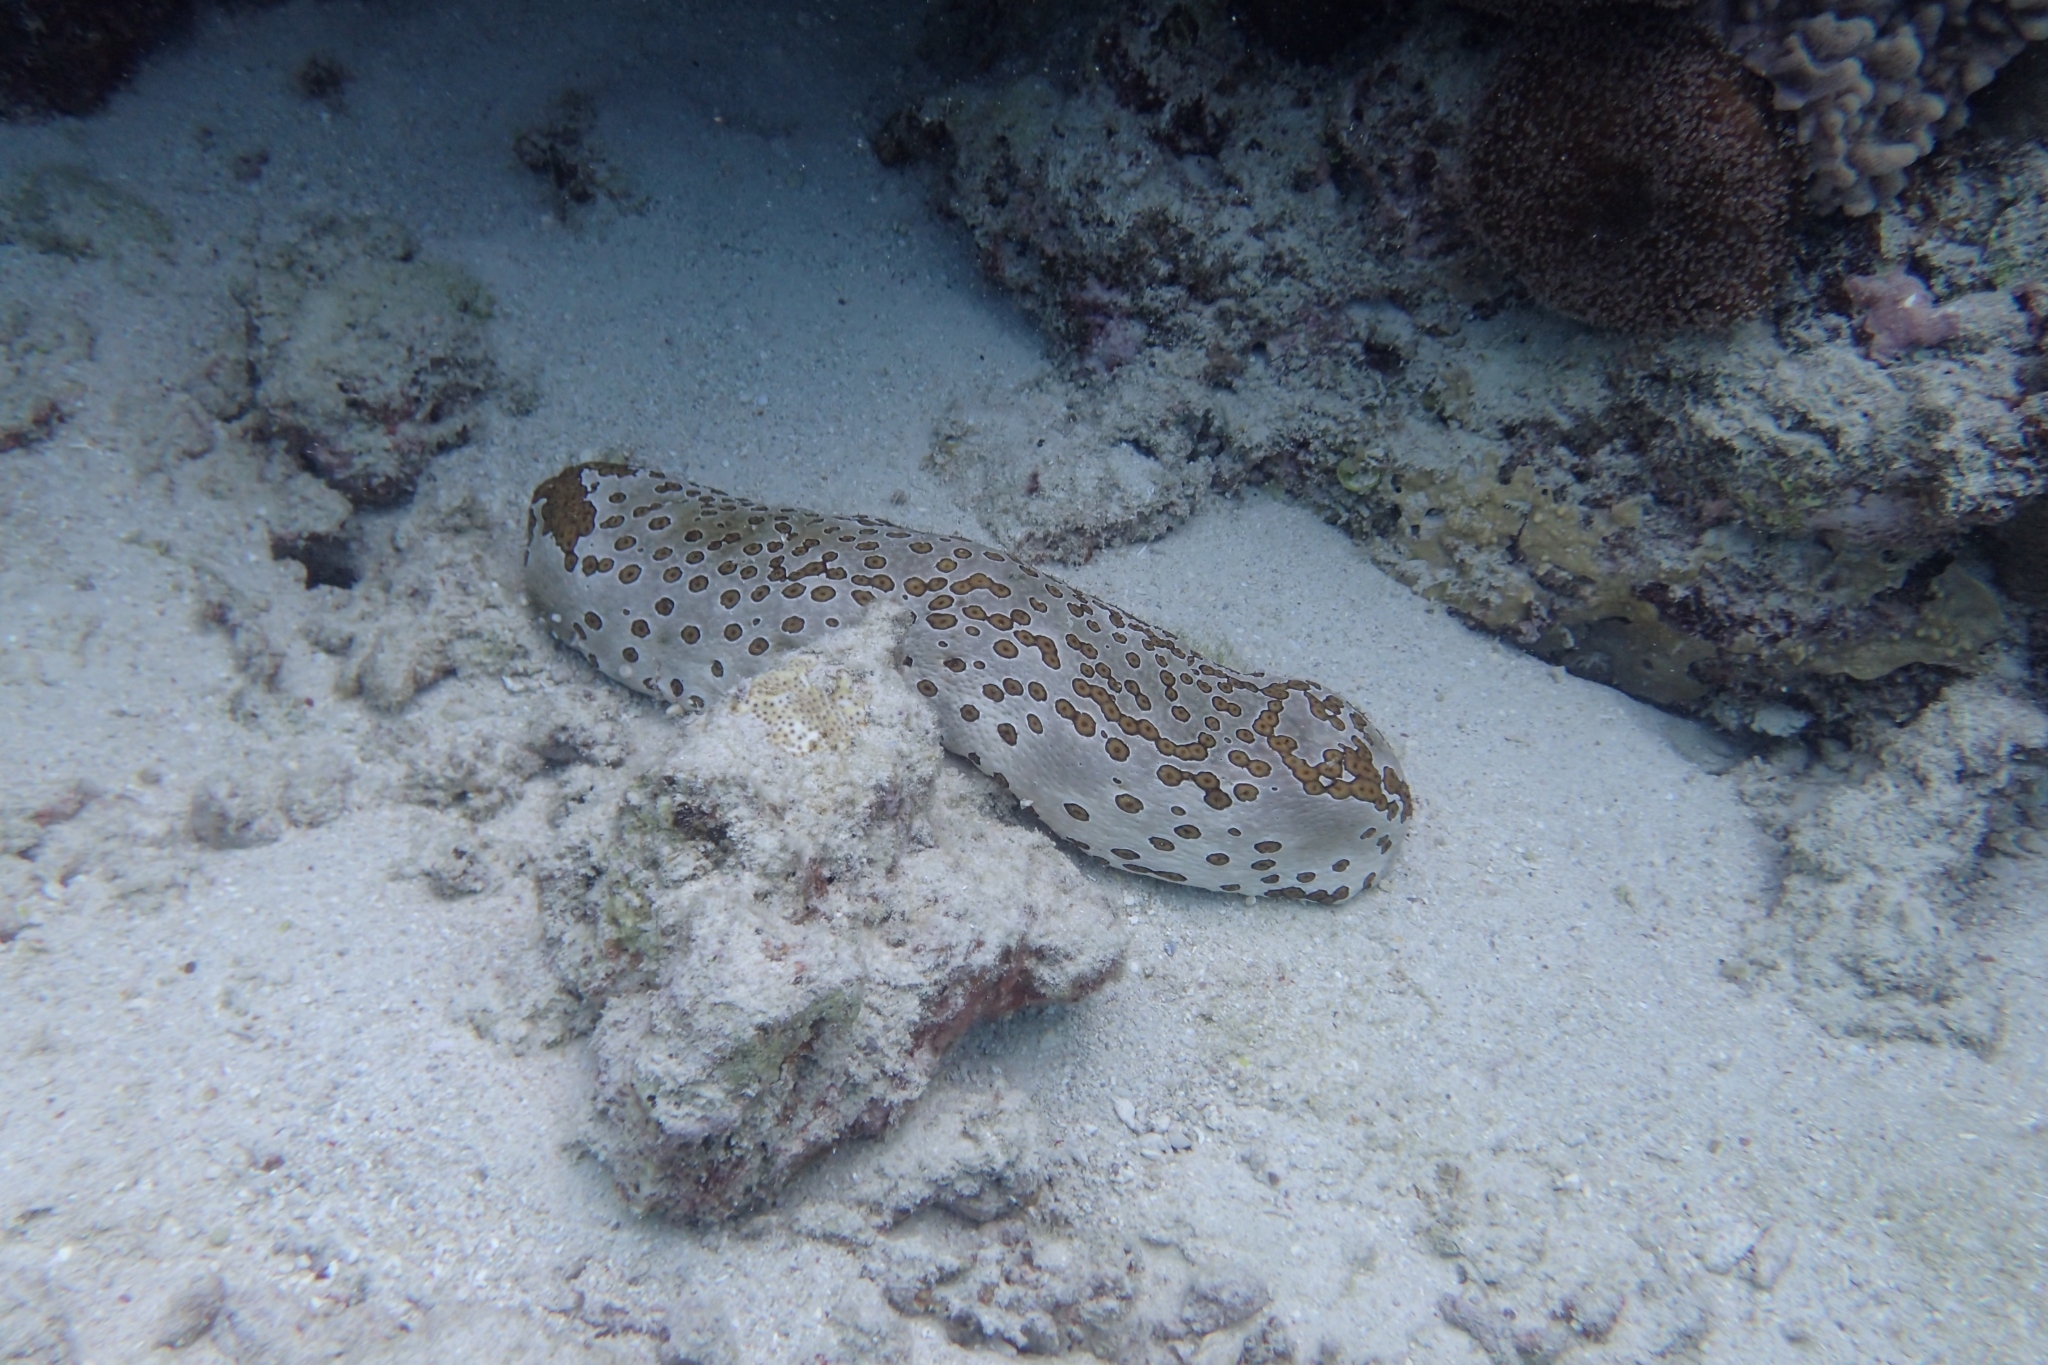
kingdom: Animalia
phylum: Echinodermata
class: Holothuroidea
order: Holothuriida
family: Holothuriidae
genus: Bohadschia
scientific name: Bohadschia argus
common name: Leopardfish
